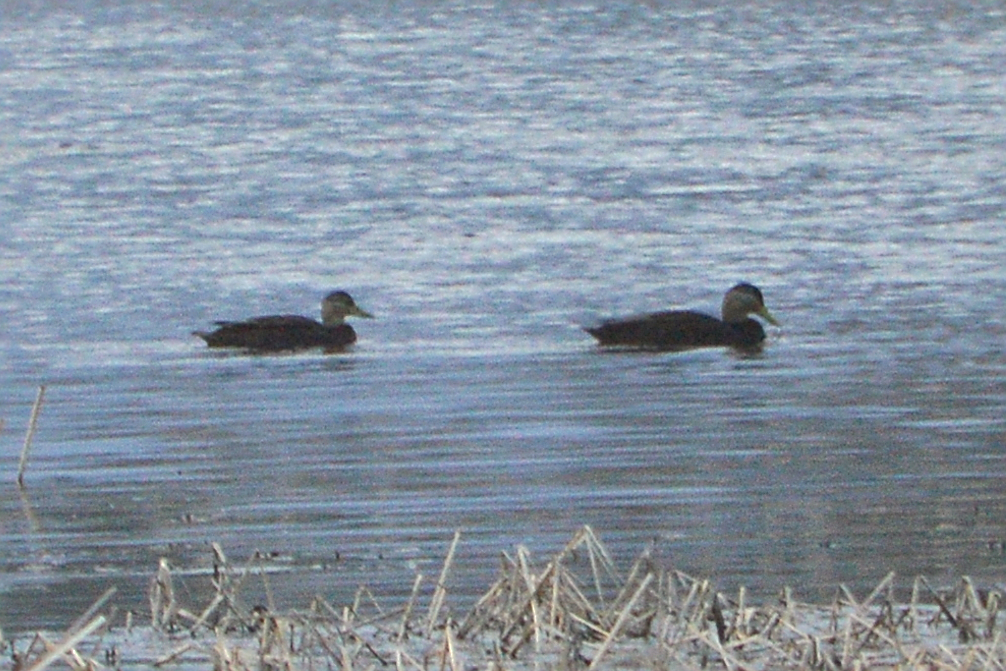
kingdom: Animalia
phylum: Chordata
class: Aves
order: Anseriformes
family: Anatidae
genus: Anas
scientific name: Anas rubripes
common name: American black duck
